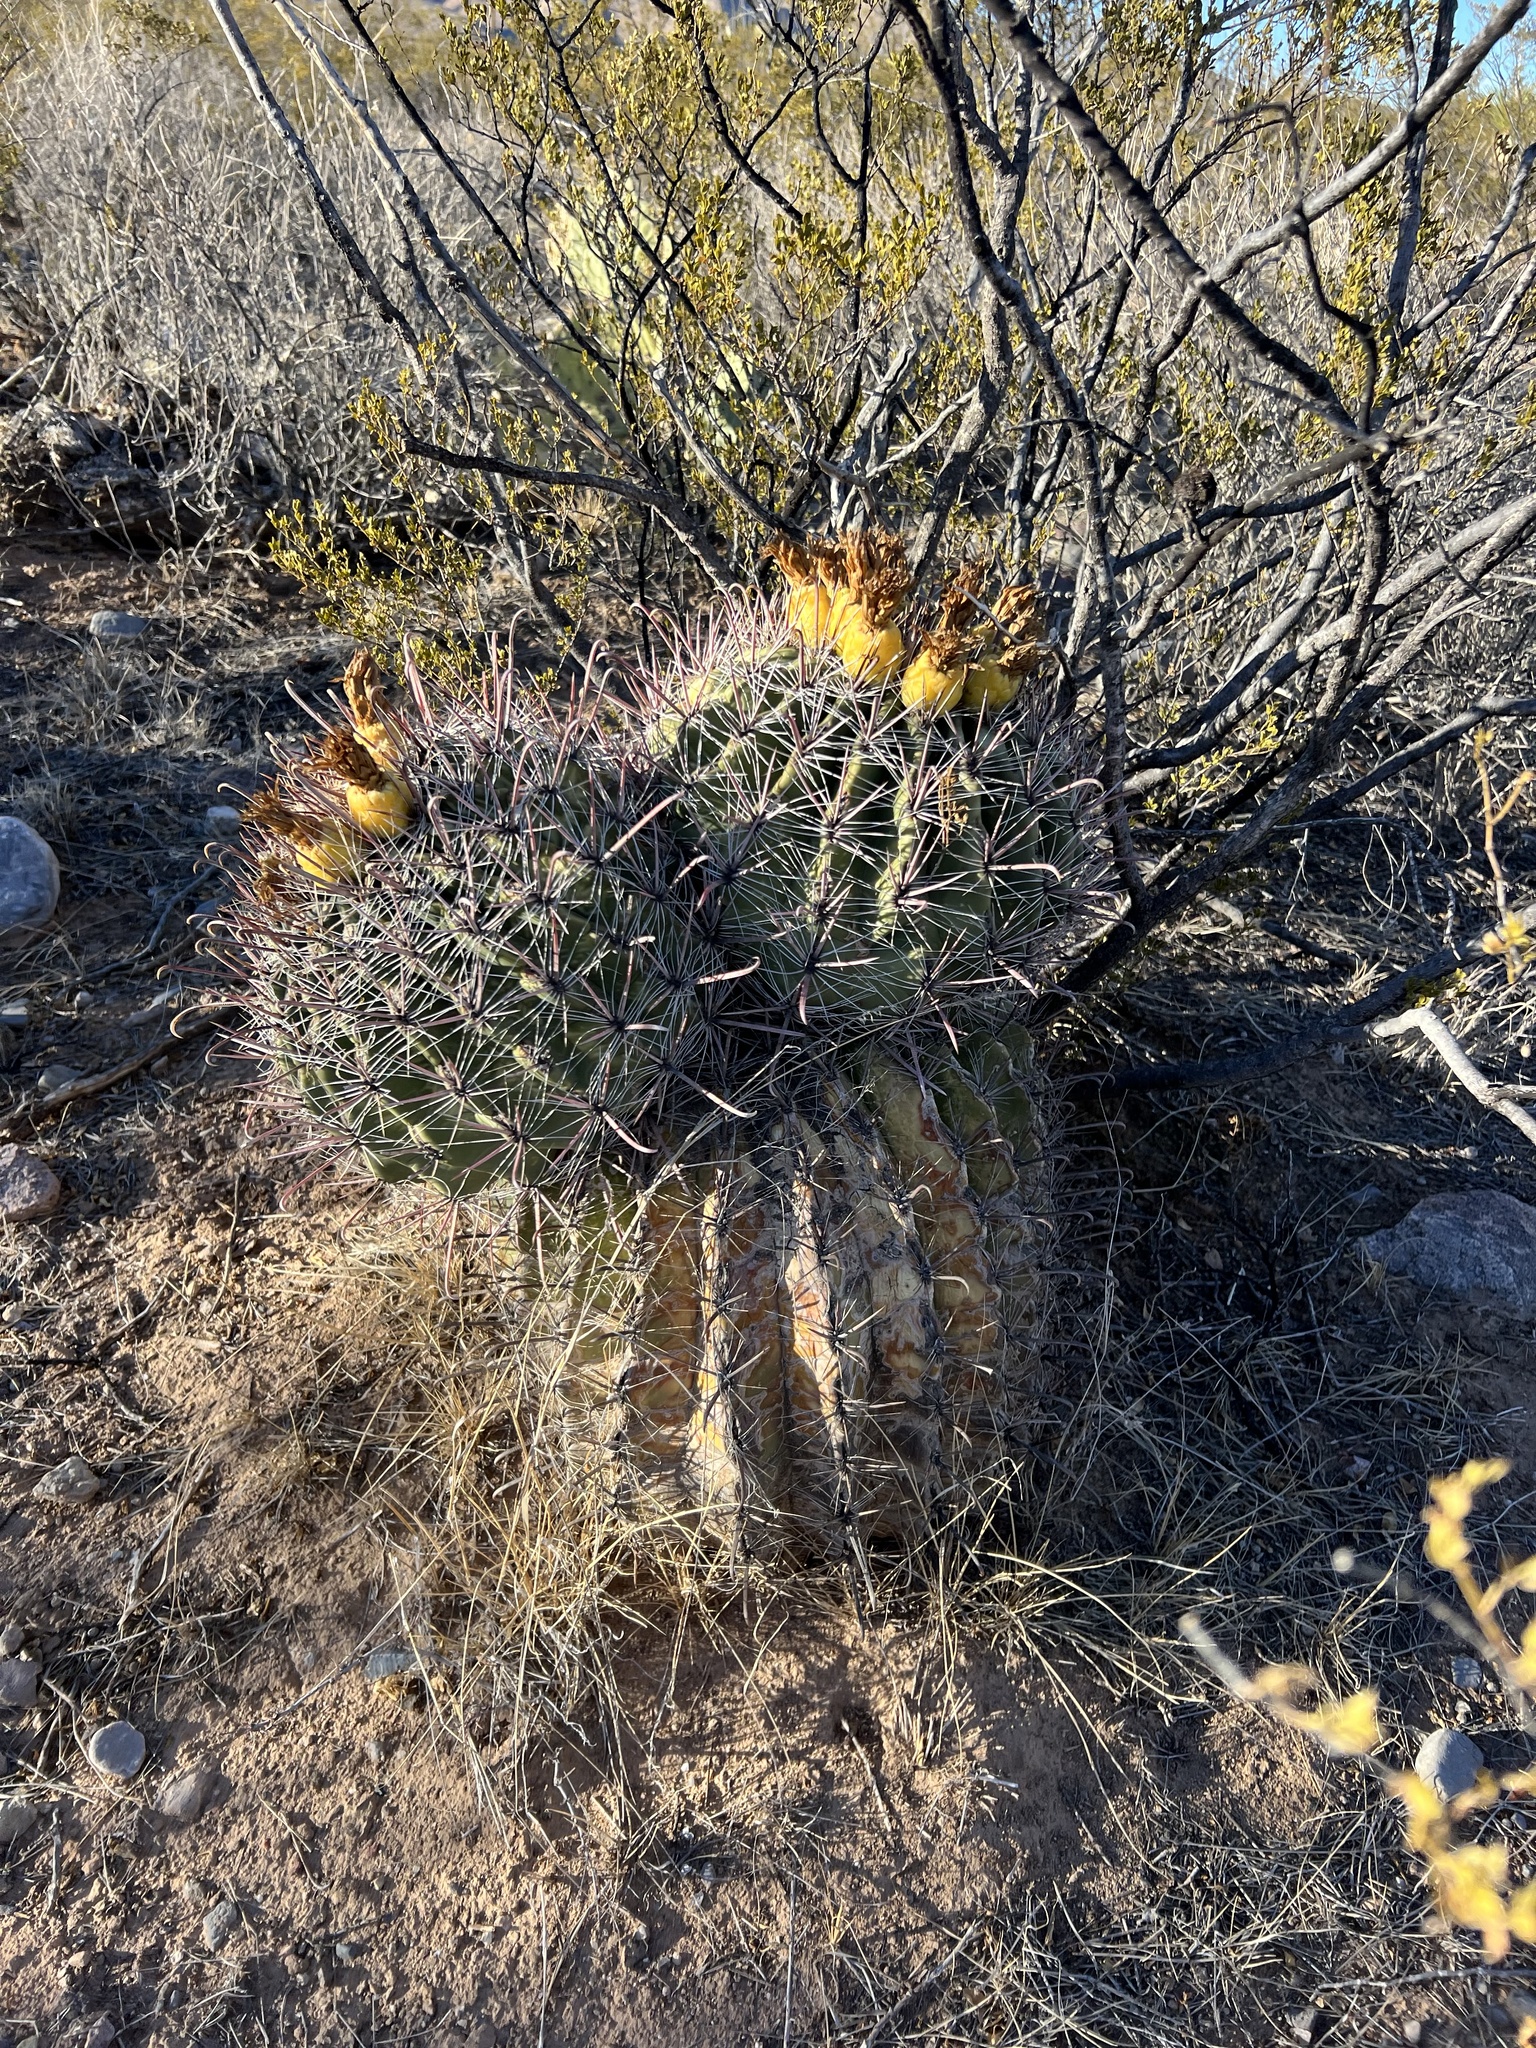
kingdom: Plantae
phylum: Tracheophyta
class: Magnoliopsida
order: Caryophyllales
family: Cactaceae
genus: Ferocactus
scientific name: Ferocactus wislizeni
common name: Candy barrel cactus
